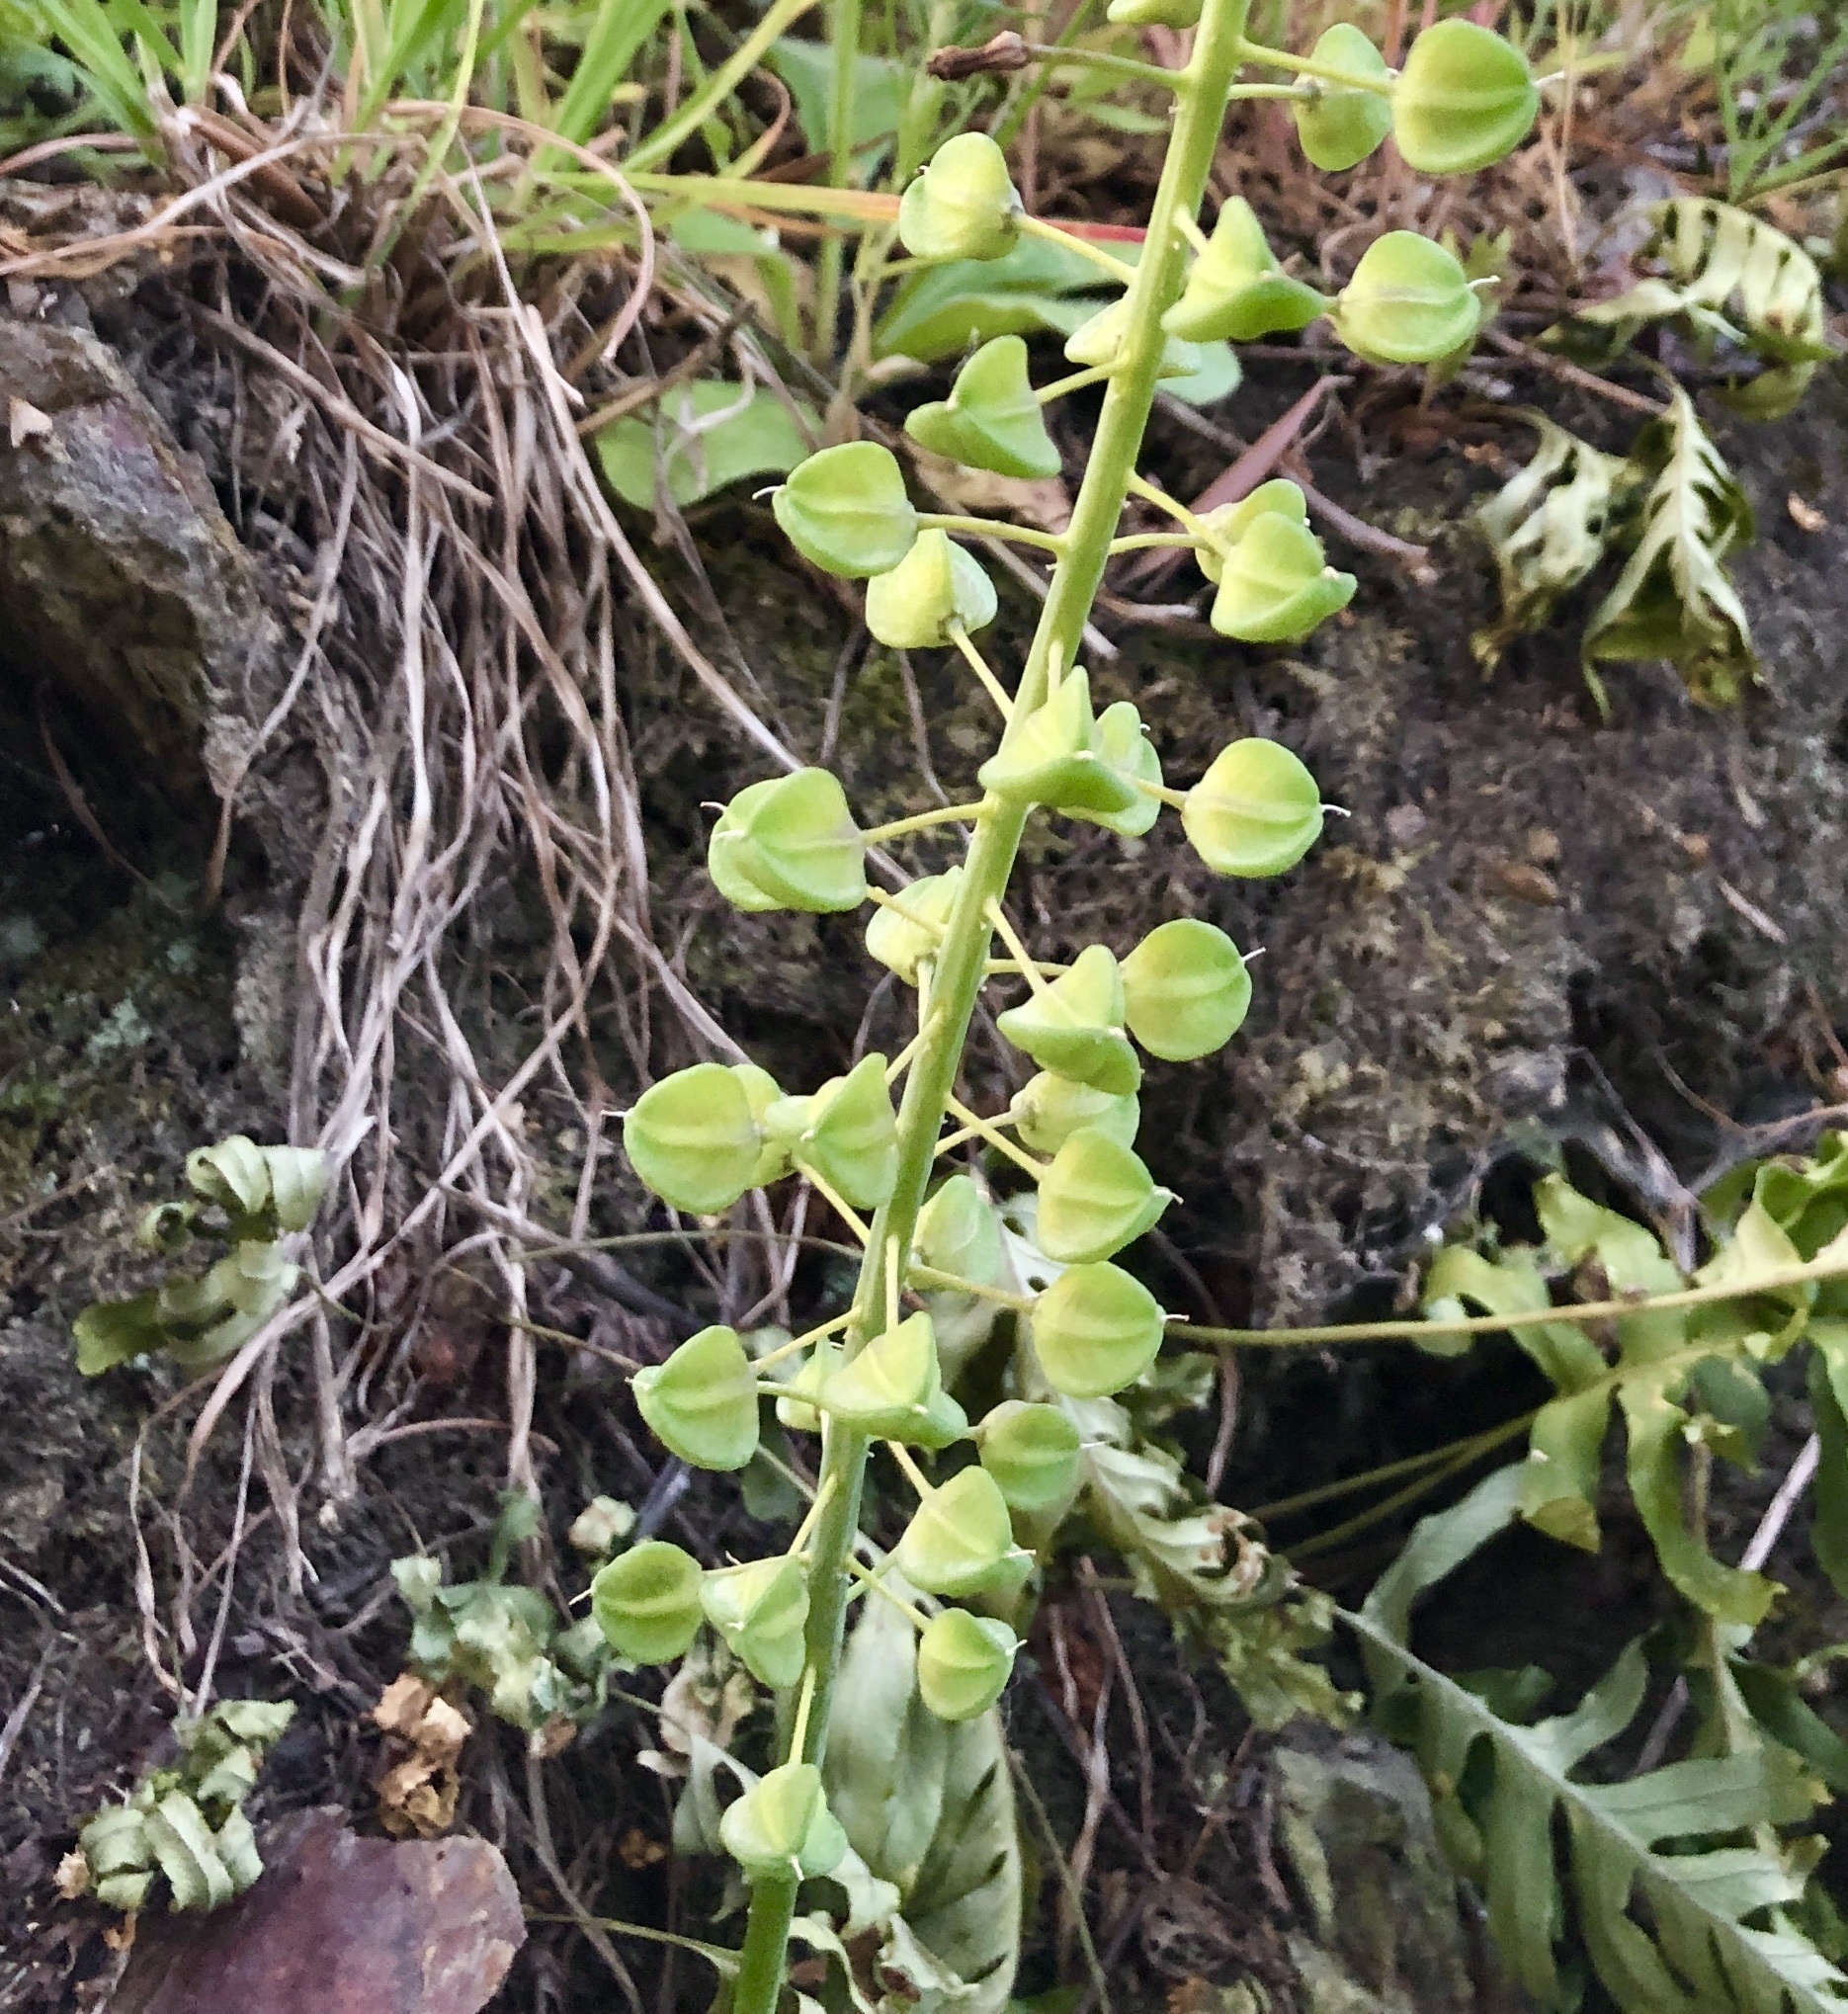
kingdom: Plantae
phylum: Tracheophyta
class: Liliopsida
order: Asparagales
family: Asparagaceae
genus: Muscari
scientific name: Muscari comosum
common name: Tassel hyacinth
